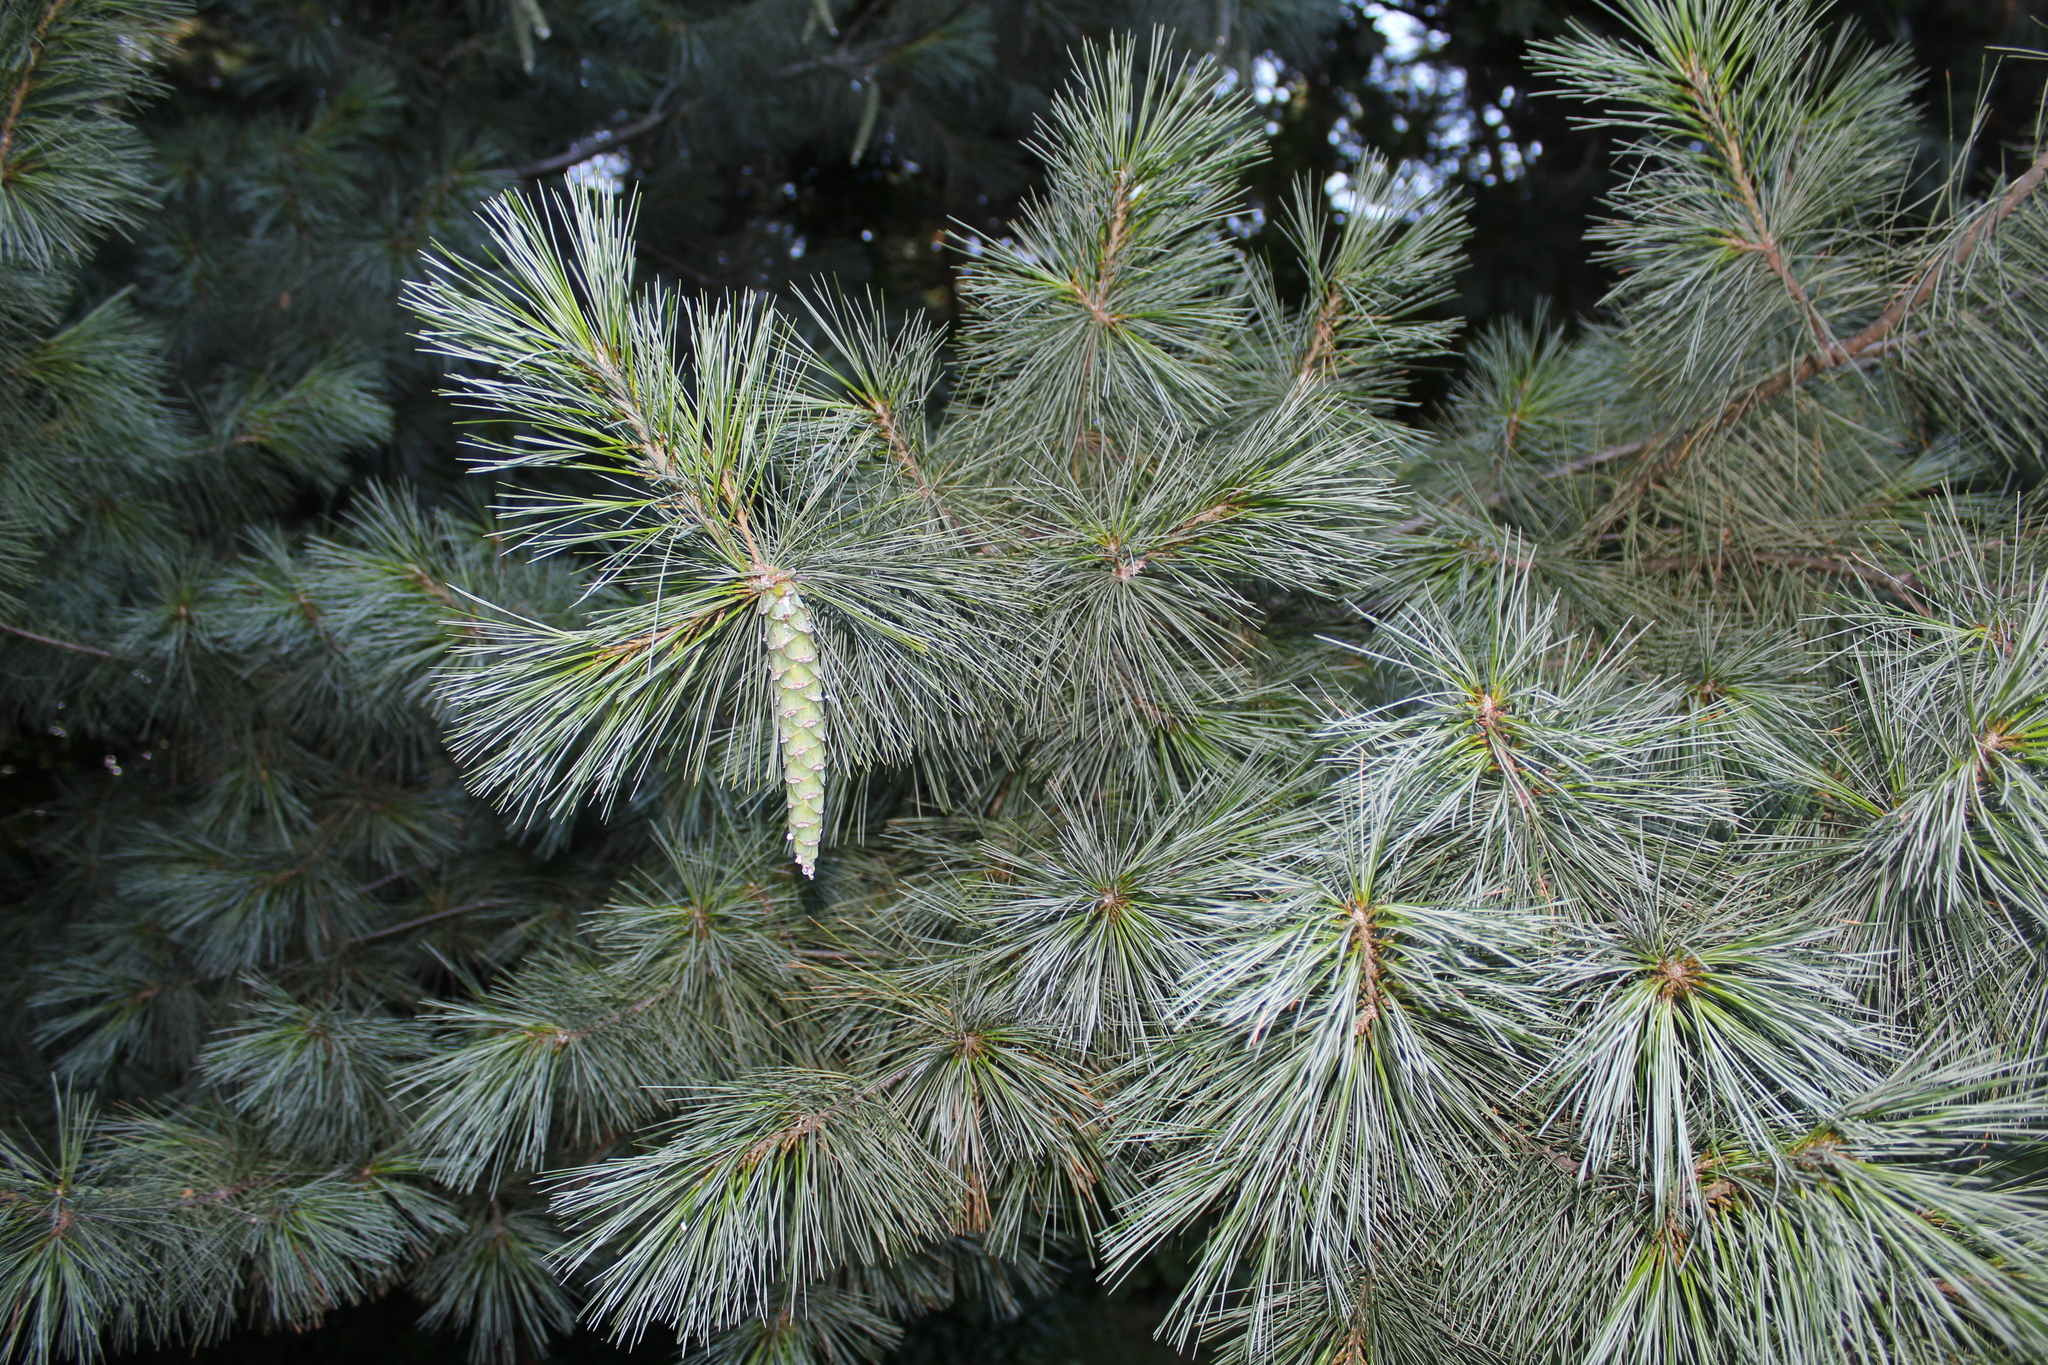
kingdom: Plantae
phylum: Tracheophyta
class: Pinopsida
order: Pinales
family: Pinaceae
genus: Pinus
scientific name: Pinus strobus
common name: Weymouth pine
